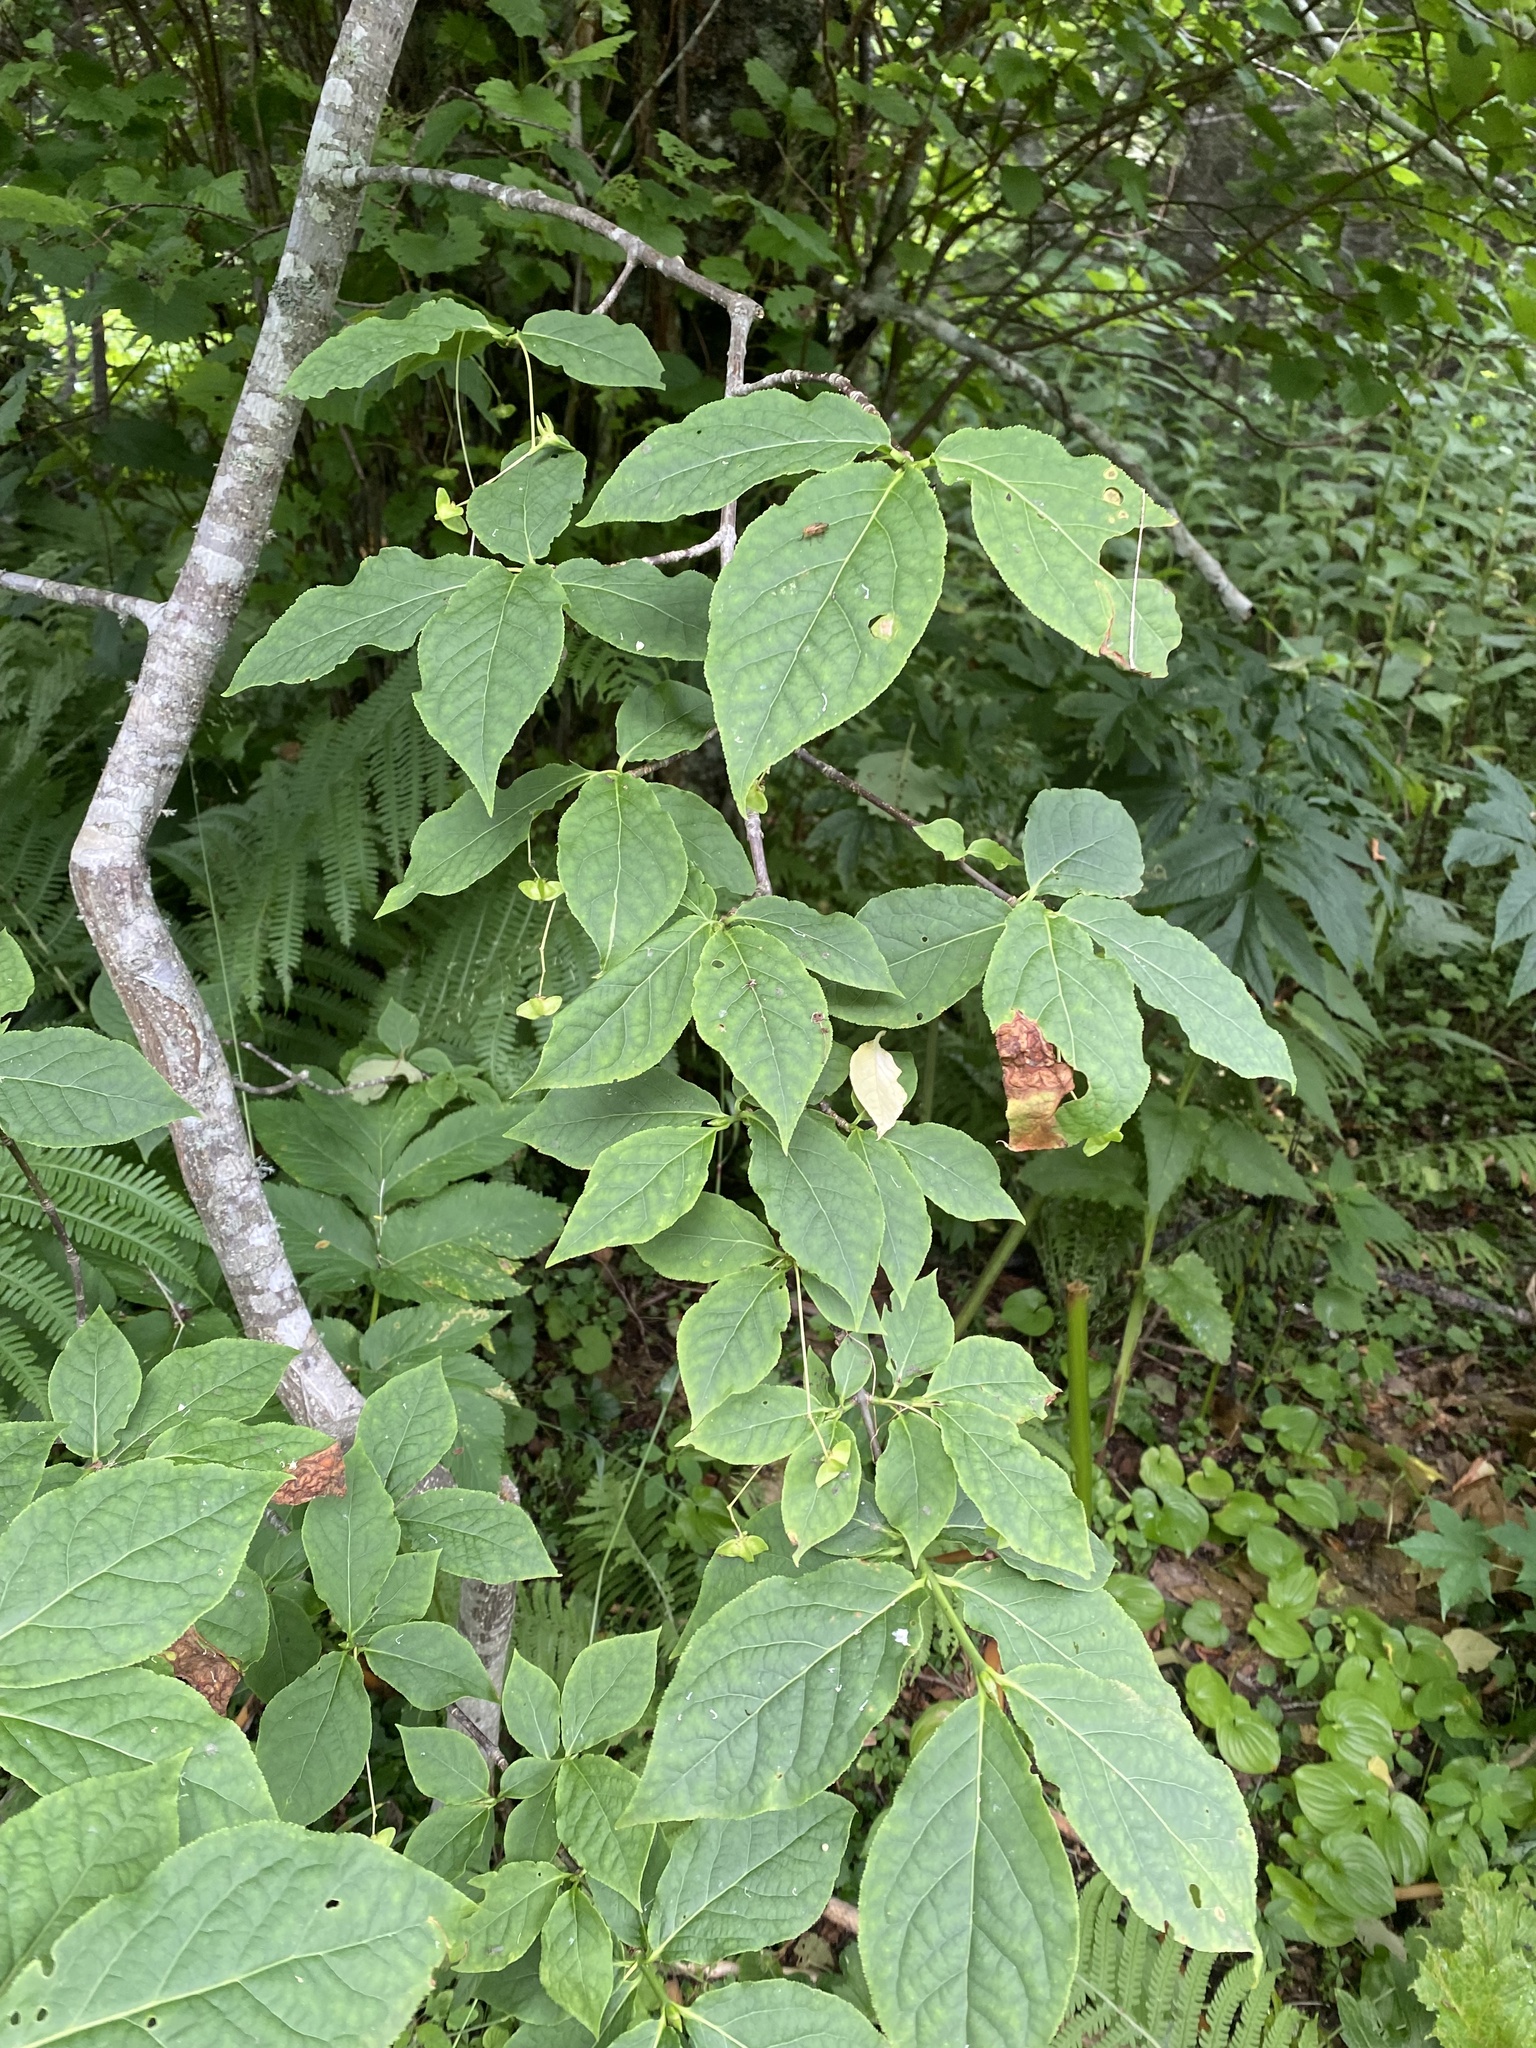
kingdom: Plantae
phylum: Tracheophyta
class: Magnoliopsida
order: Celastrales
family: Celastraceae
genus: Euonymus
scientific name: Euonymus macropterus
